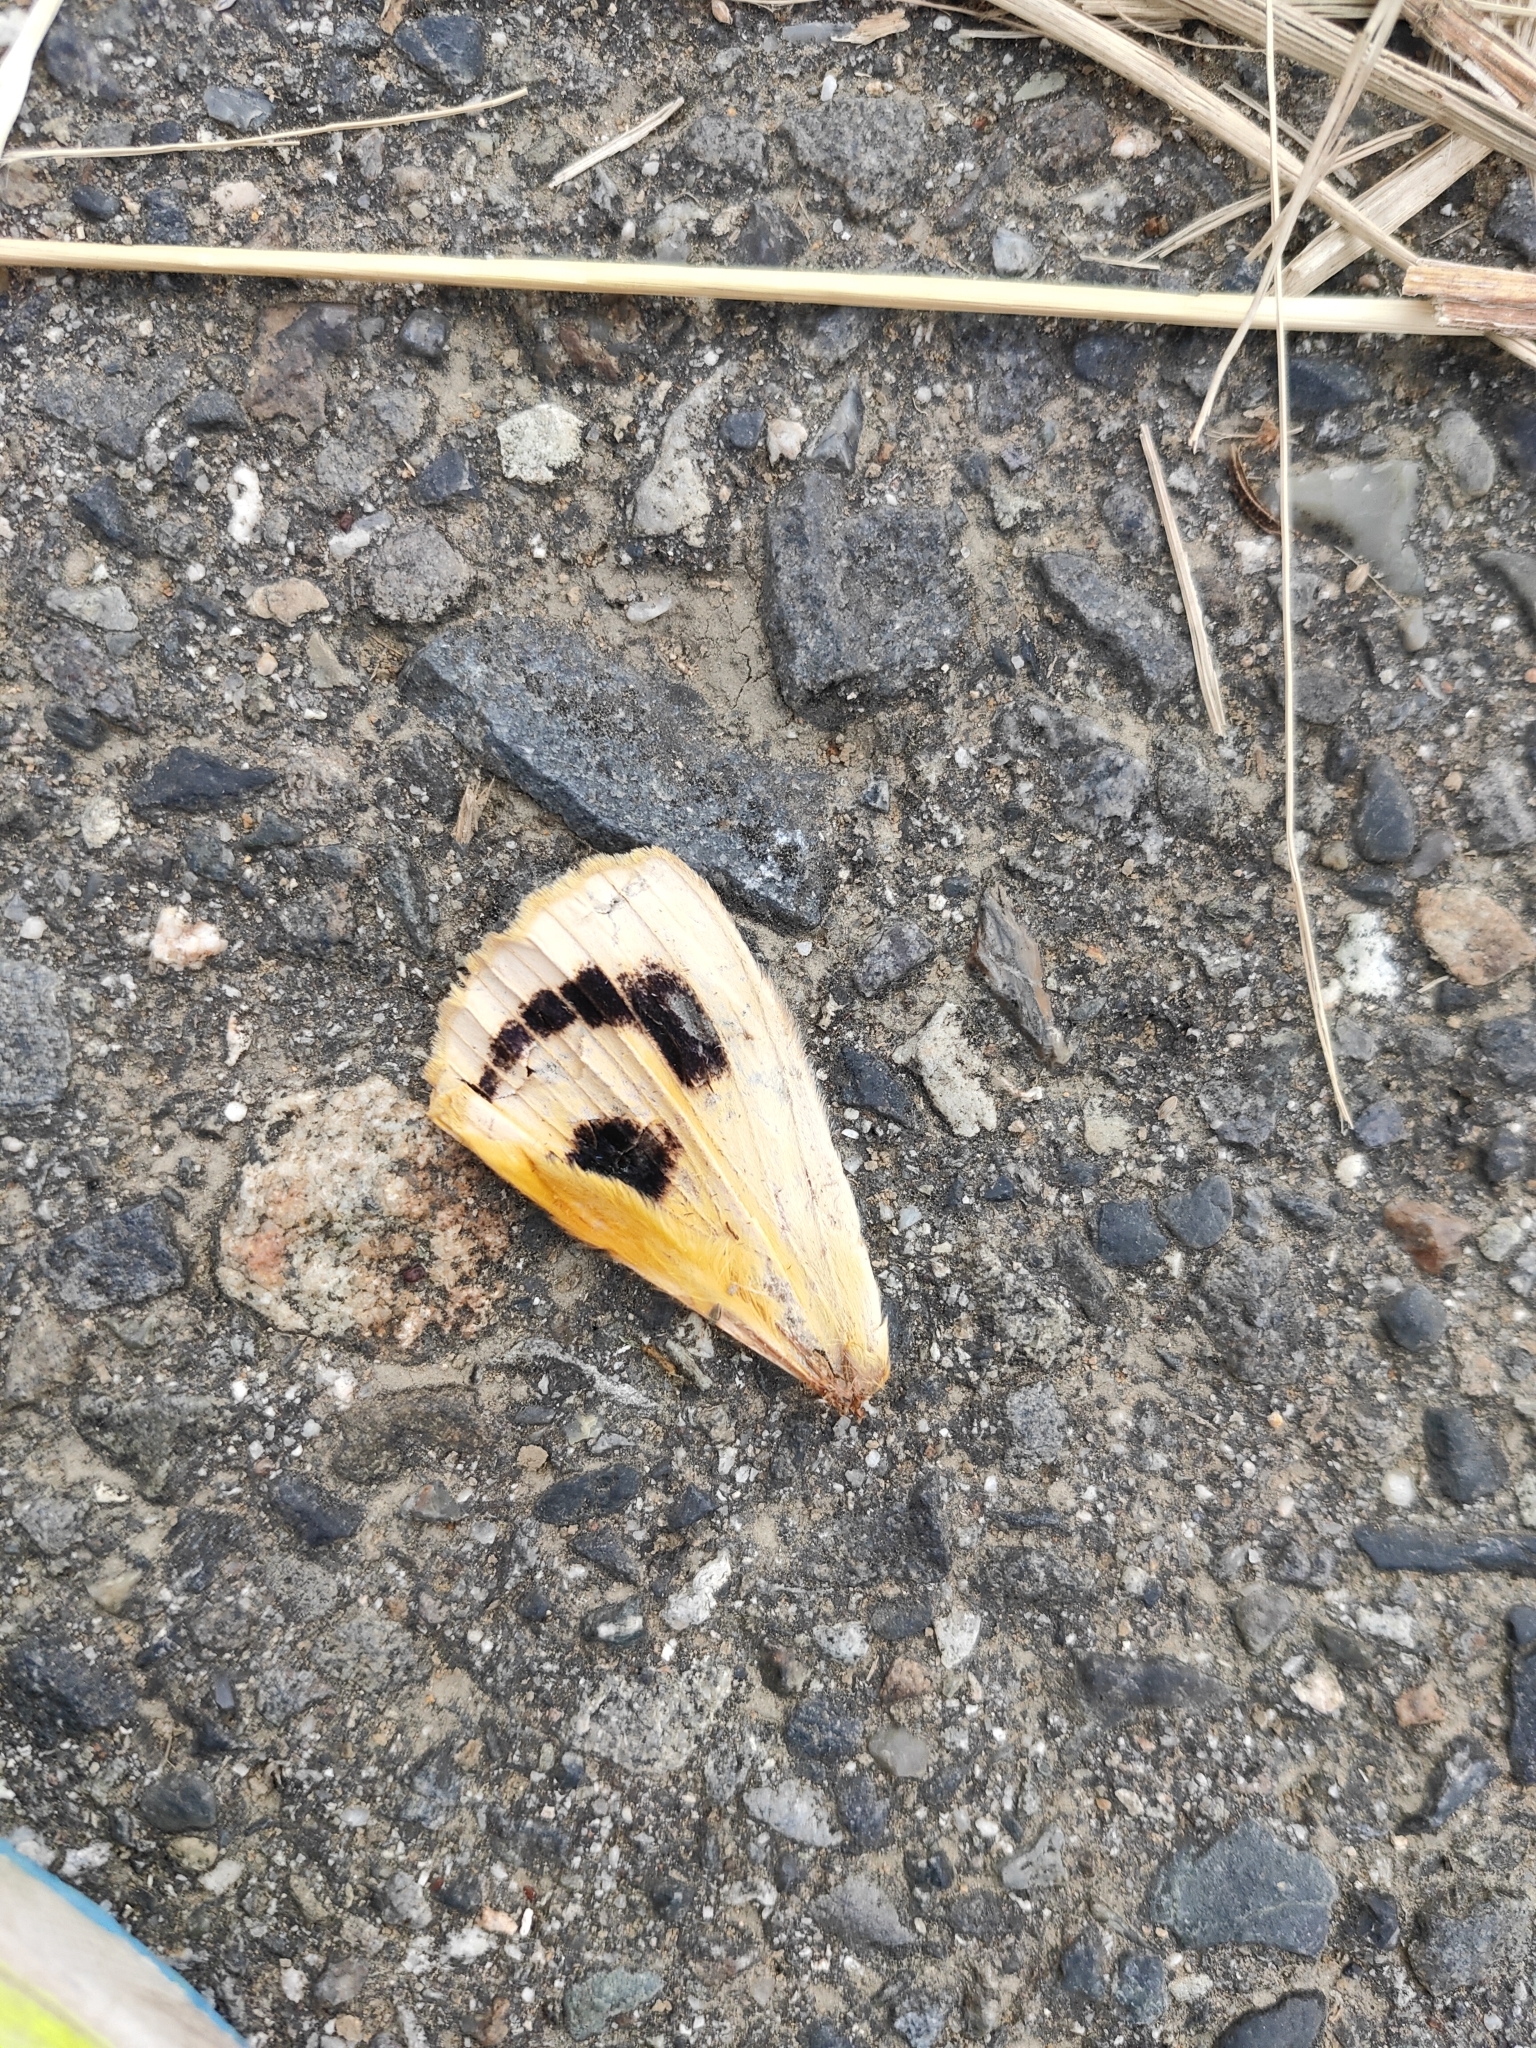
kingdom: Animalia
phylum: Arthropoda
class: Insecta
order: Lepidoptera
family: Erebidae
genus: Eudocima
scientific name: Eudocima tyrannus
